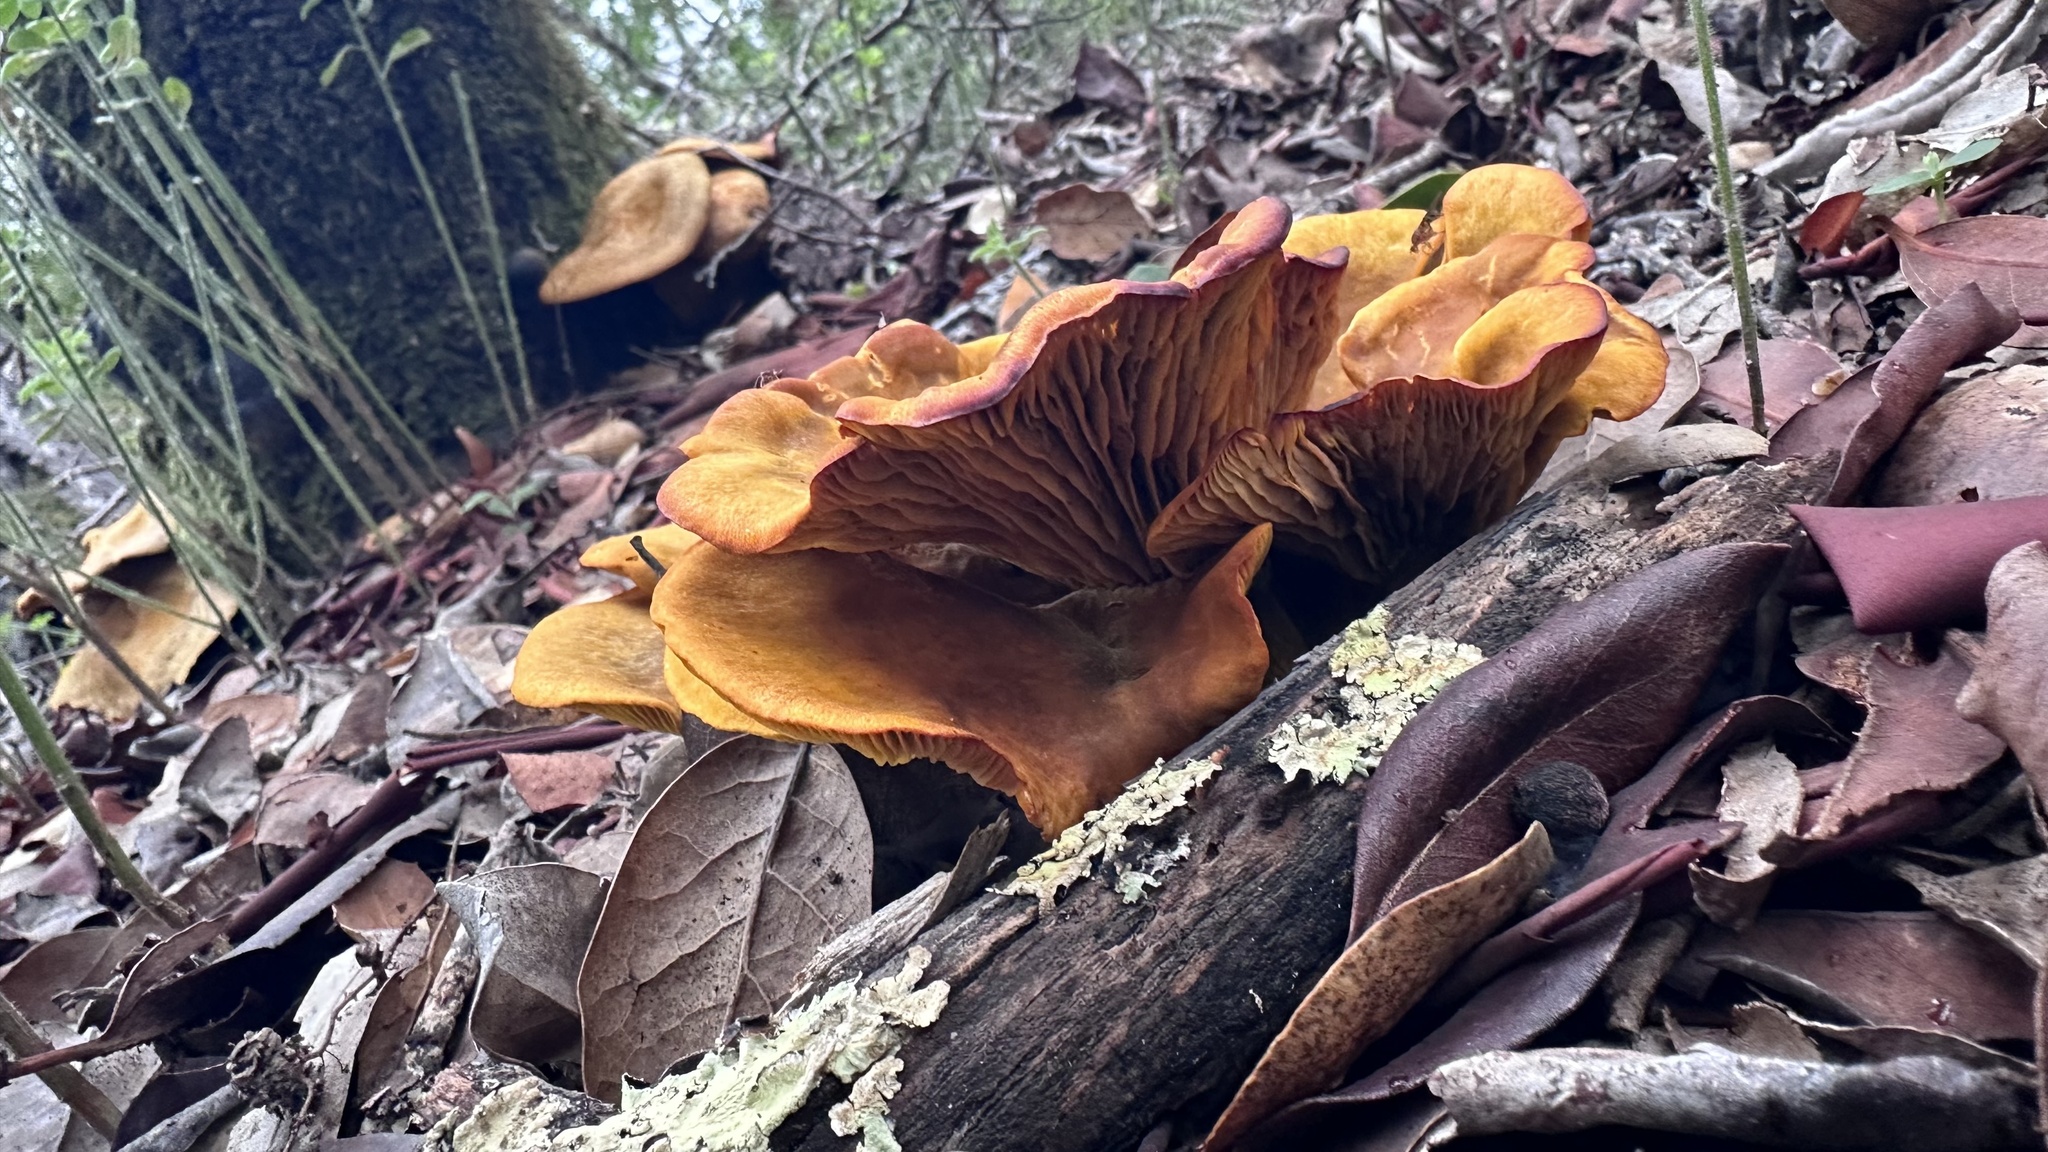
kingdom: Fungi
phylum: Basidiomycota
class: Agaricomycetes
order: Agaricales
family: Omphalotaceae
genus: Omphalotus
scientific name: Omphalotus olivascens
